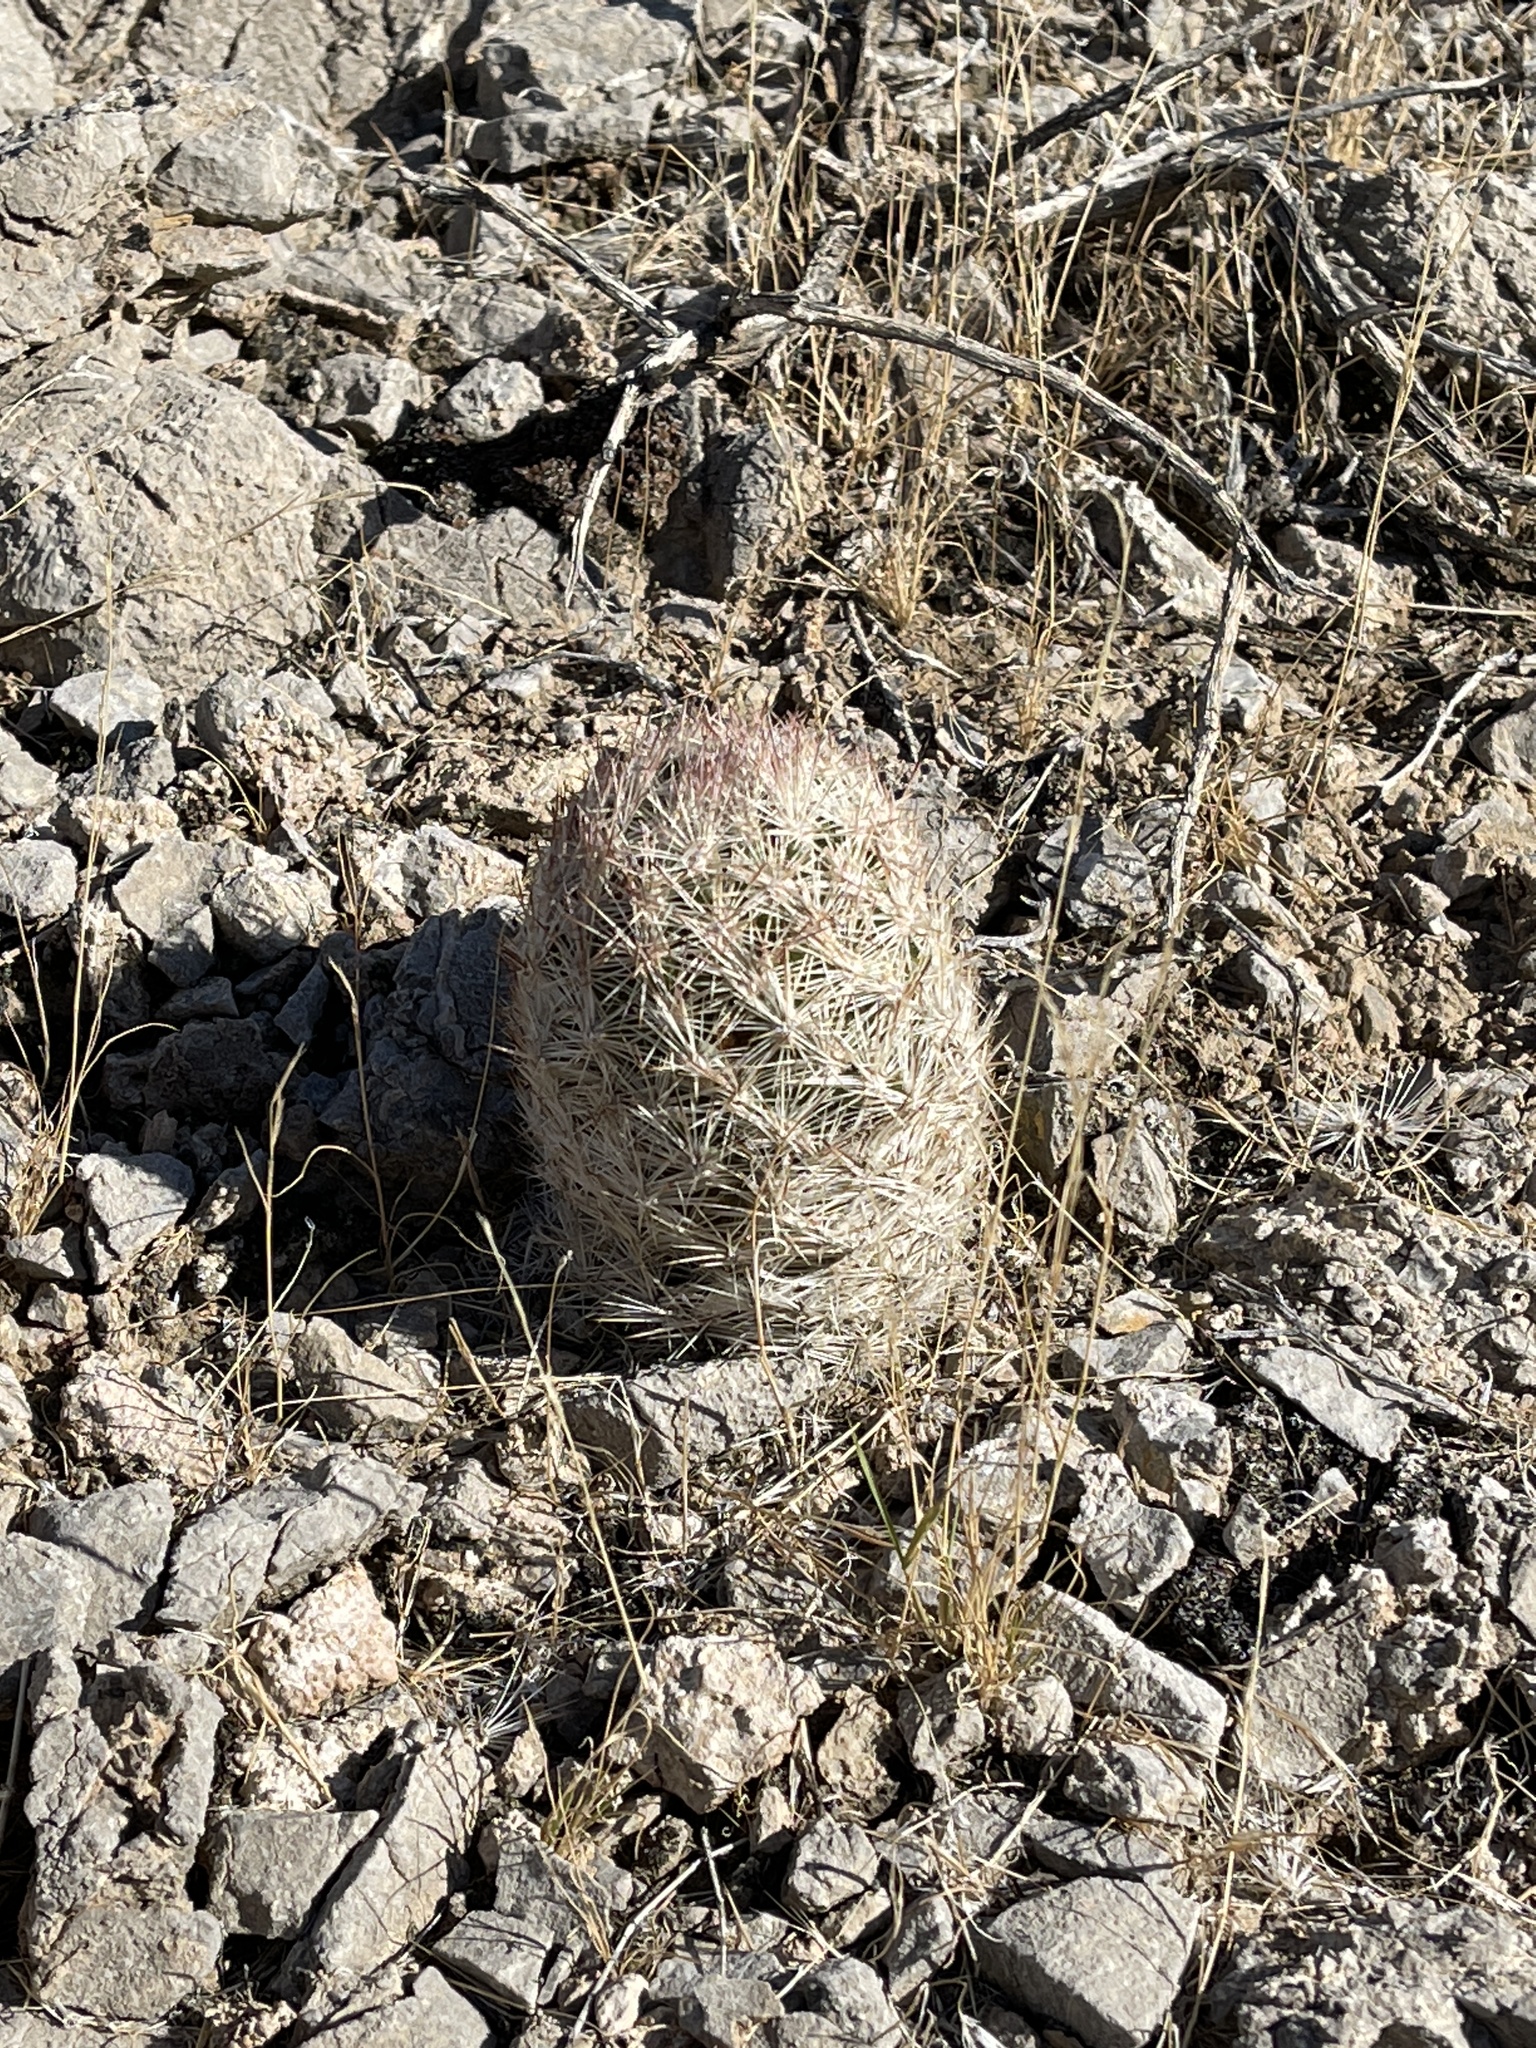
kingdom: Plantae
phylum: Tracheophyta
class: Magnoliopsida
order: Caryophyllales
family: Cactaceae
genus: Pelecyphora
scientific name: Pelecyphora dasyacantha
